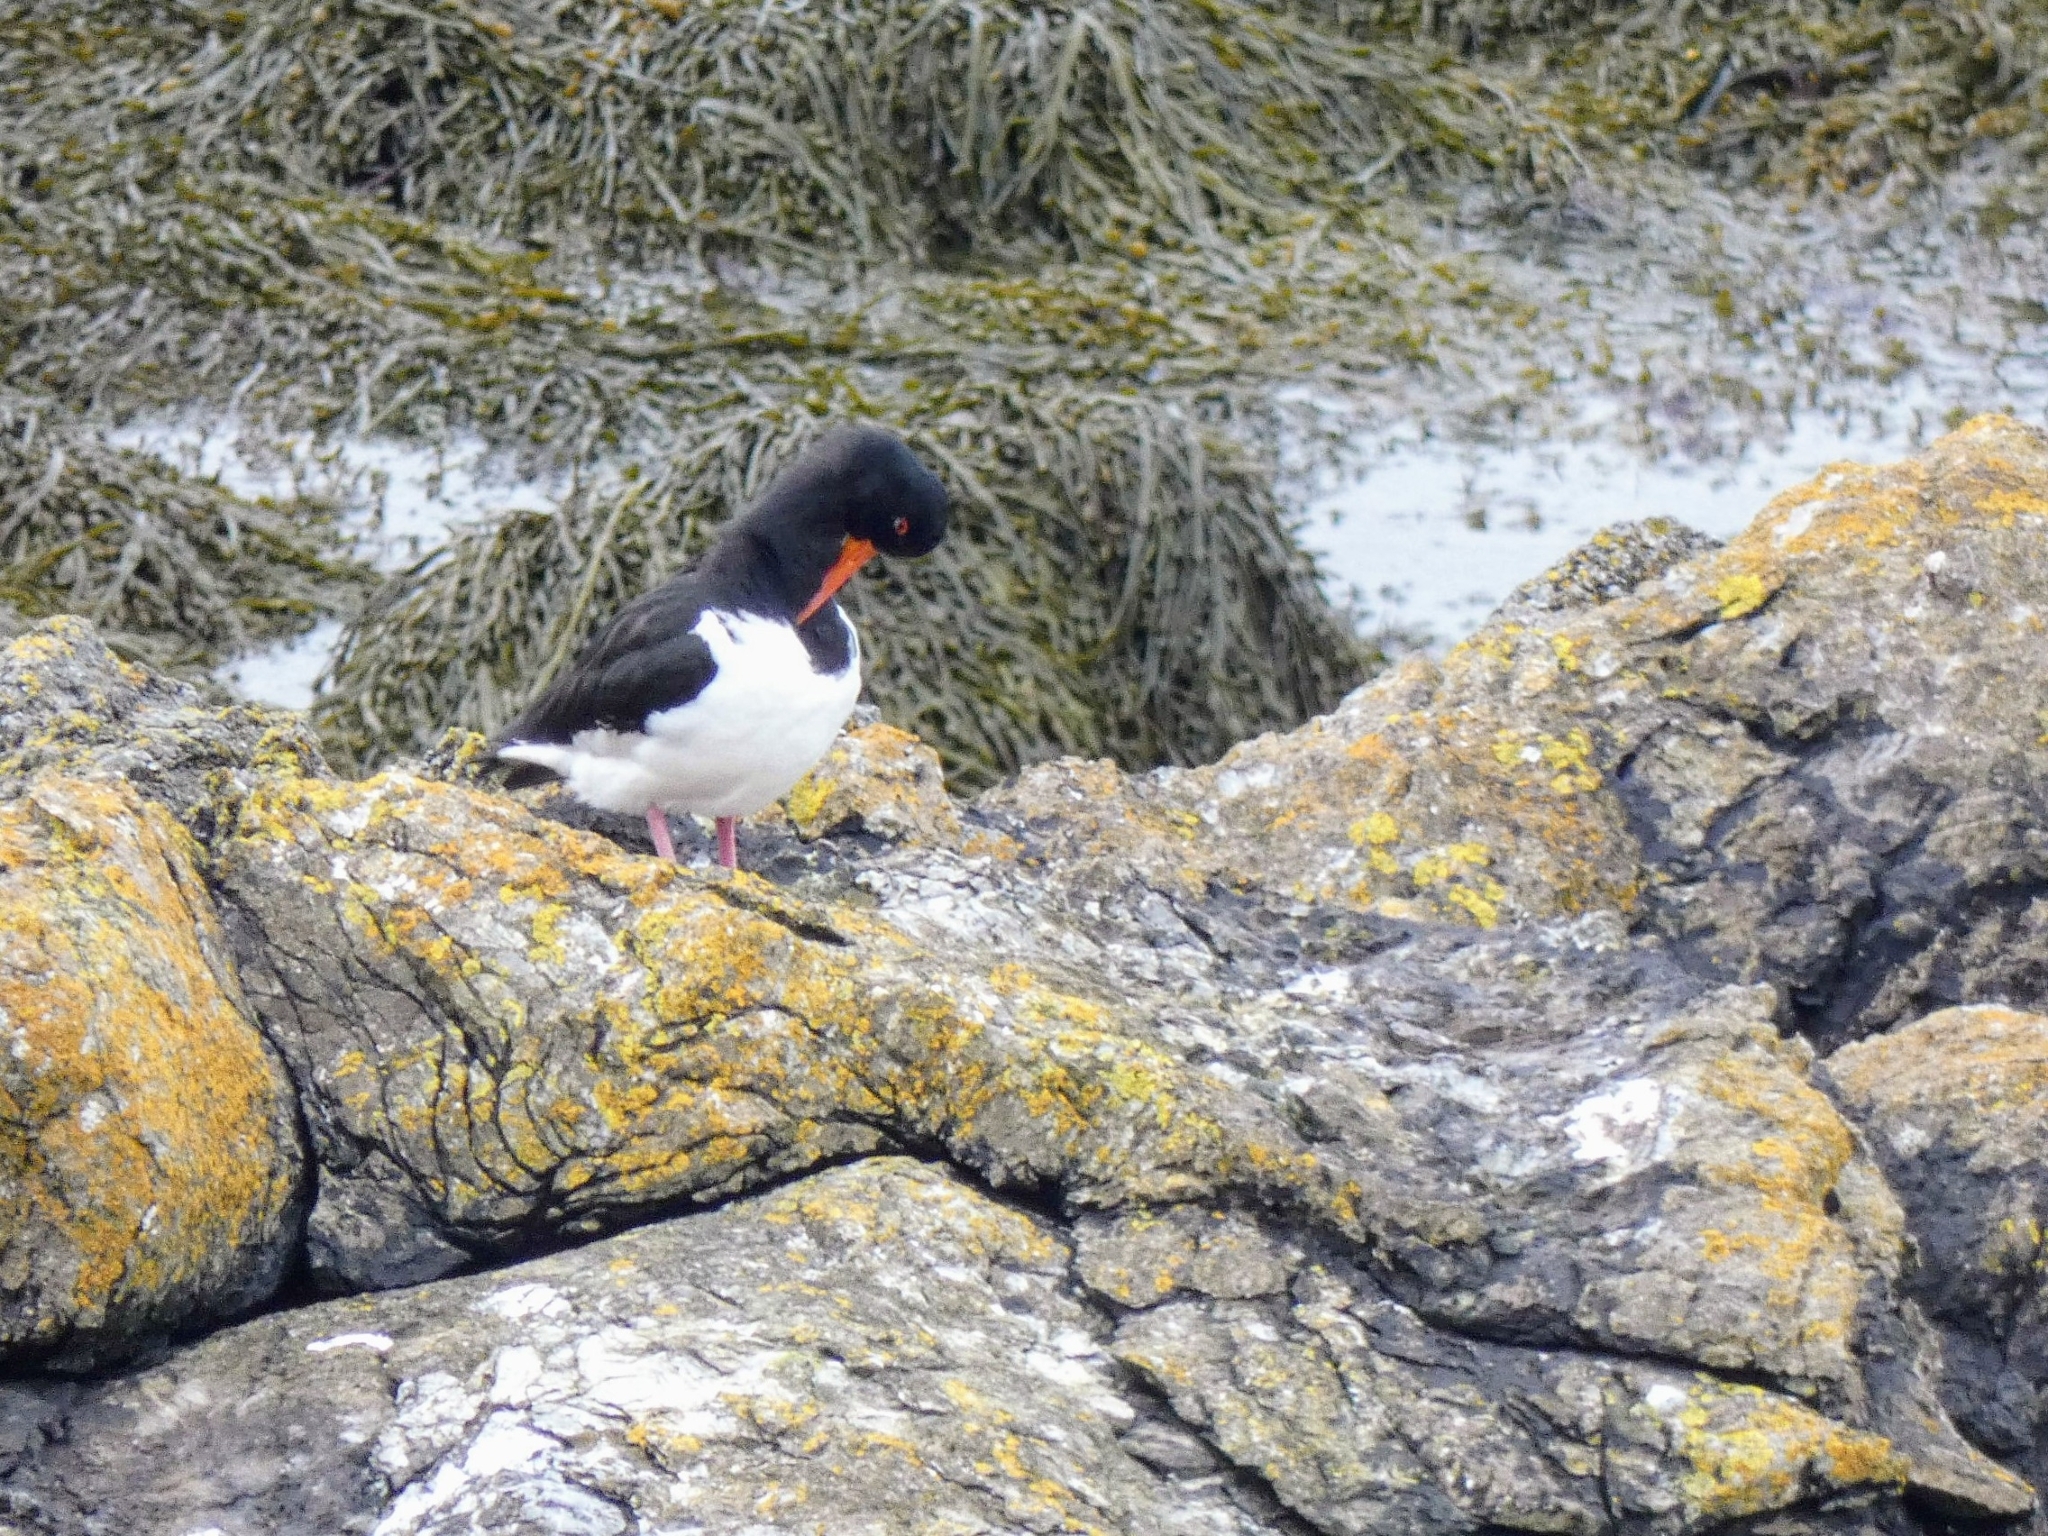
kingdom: Animalia
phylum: Chordata
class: Aves
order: Charadriiformes
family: Haematopodidae
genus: Haematopus
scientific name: Haematopus ostralegus
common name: Eurasian oystercatcher
